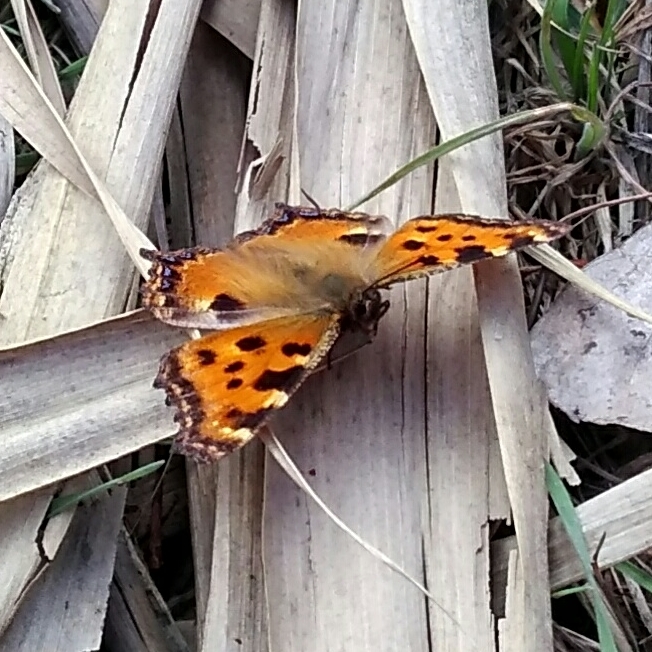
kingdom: Animalia
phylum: Arthropoda
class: Insecta
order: Lepidoptera
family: Nymphalidae
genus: Nymphalis
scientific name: Nymphalis polychloros
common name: Large tortoiseshell
